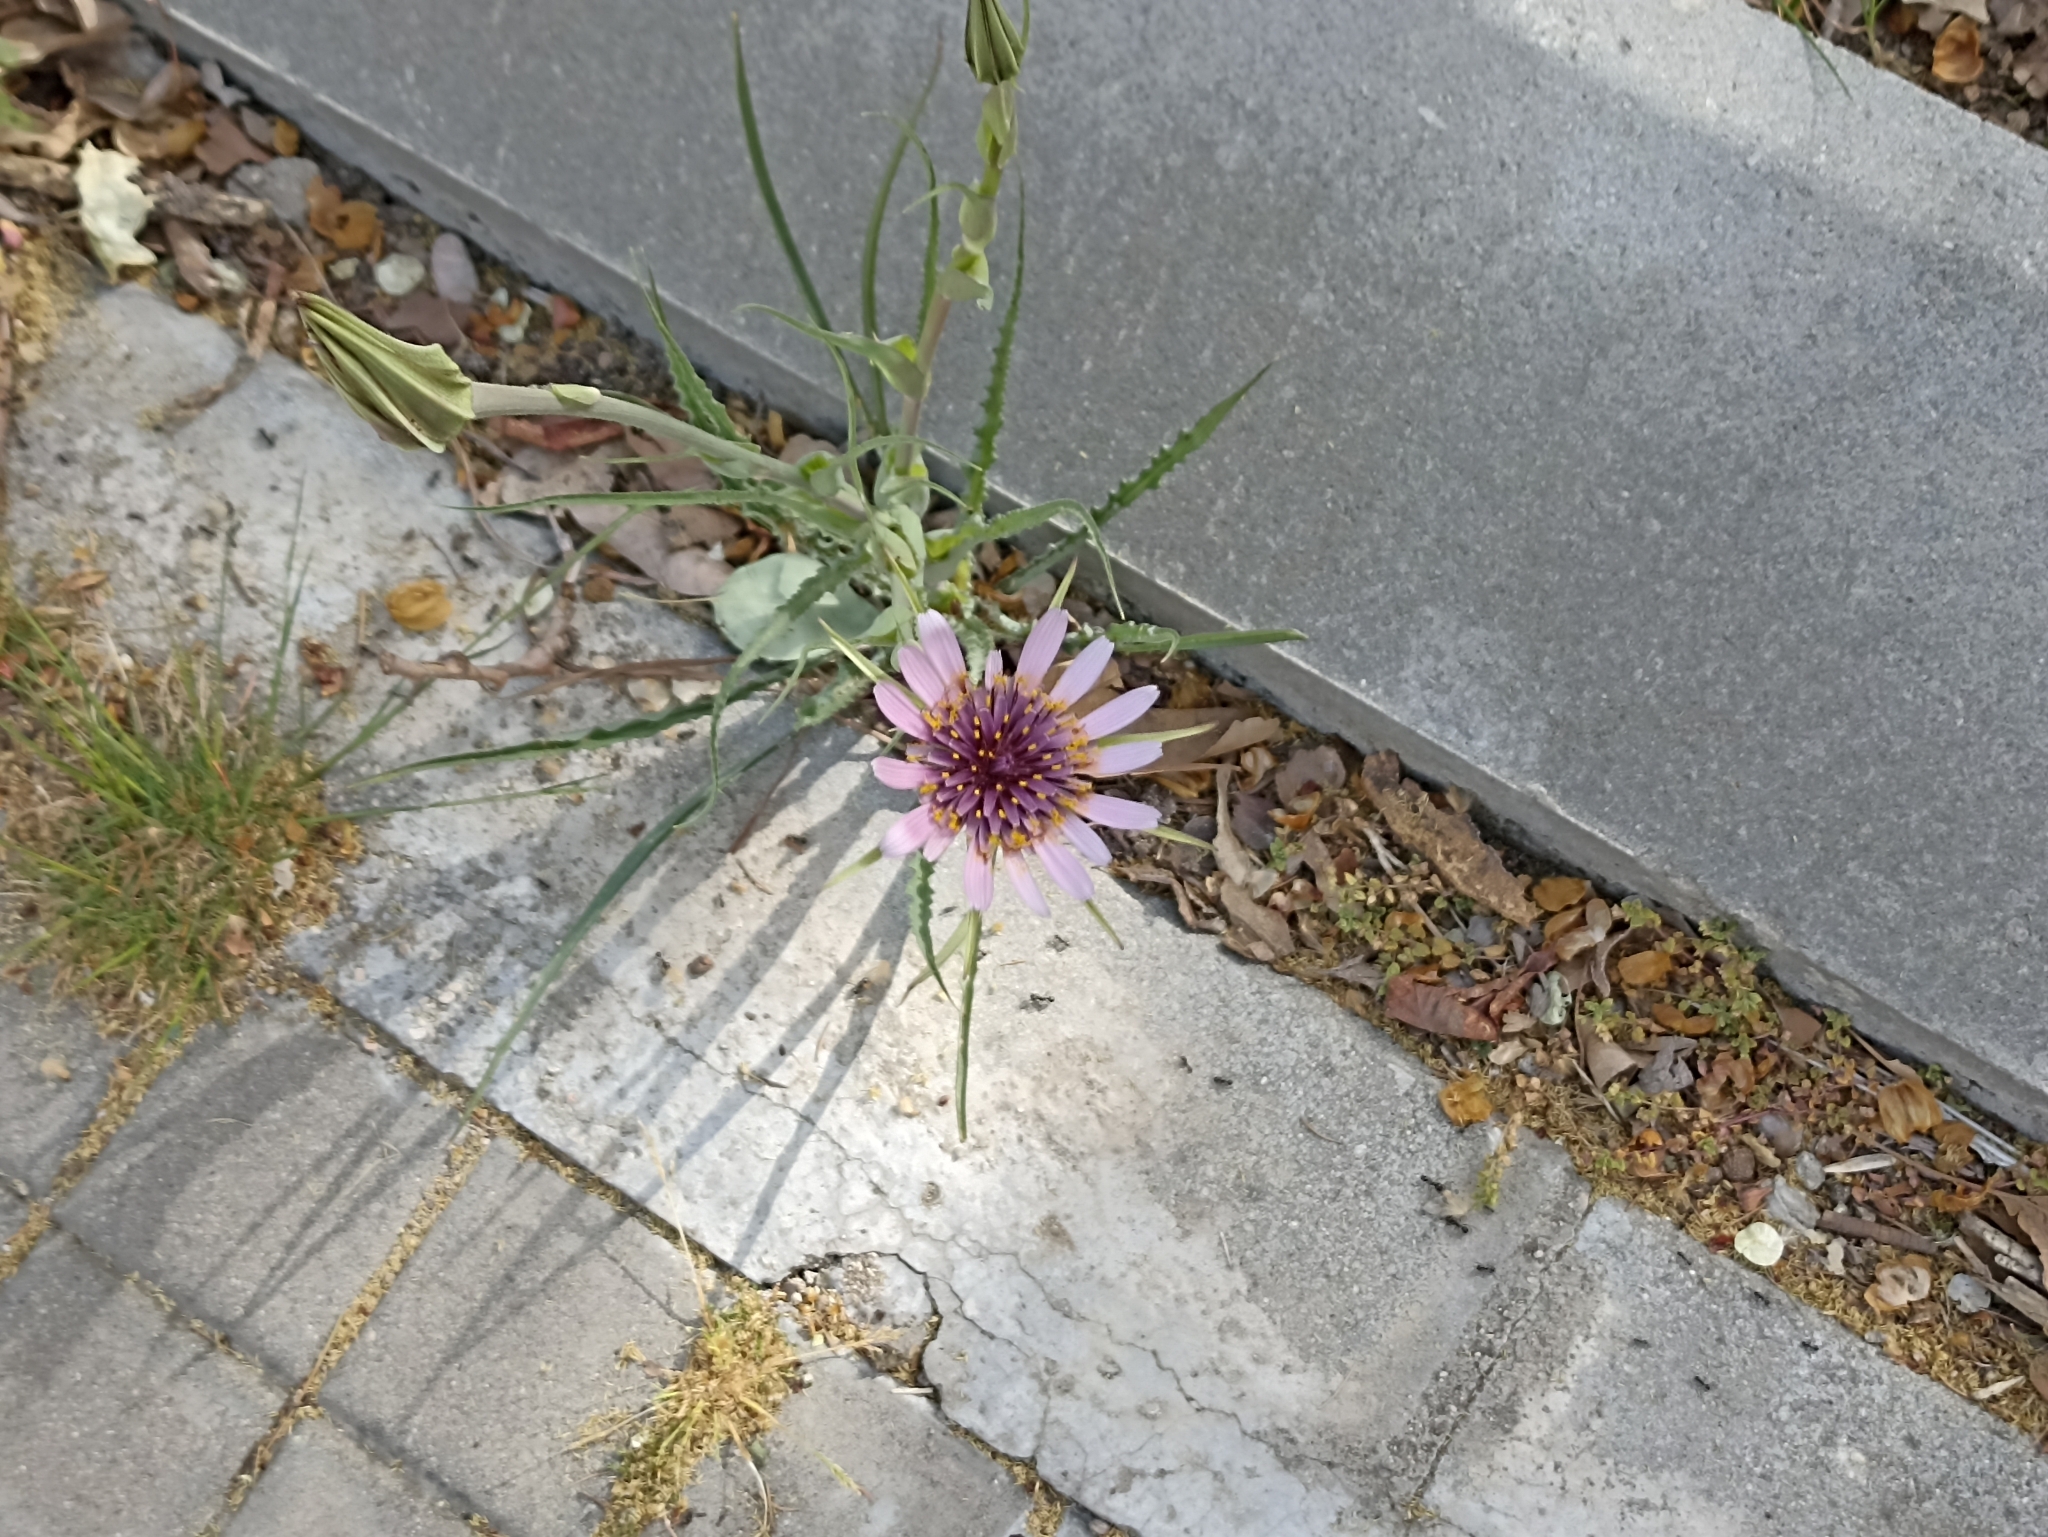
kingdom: Plantae
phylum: Tracheophyta
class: Magnoliopsida
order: Asterales
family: Asteraceae
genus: Tragopogon
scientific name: Tragopogon porrifolius
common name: Salsify
